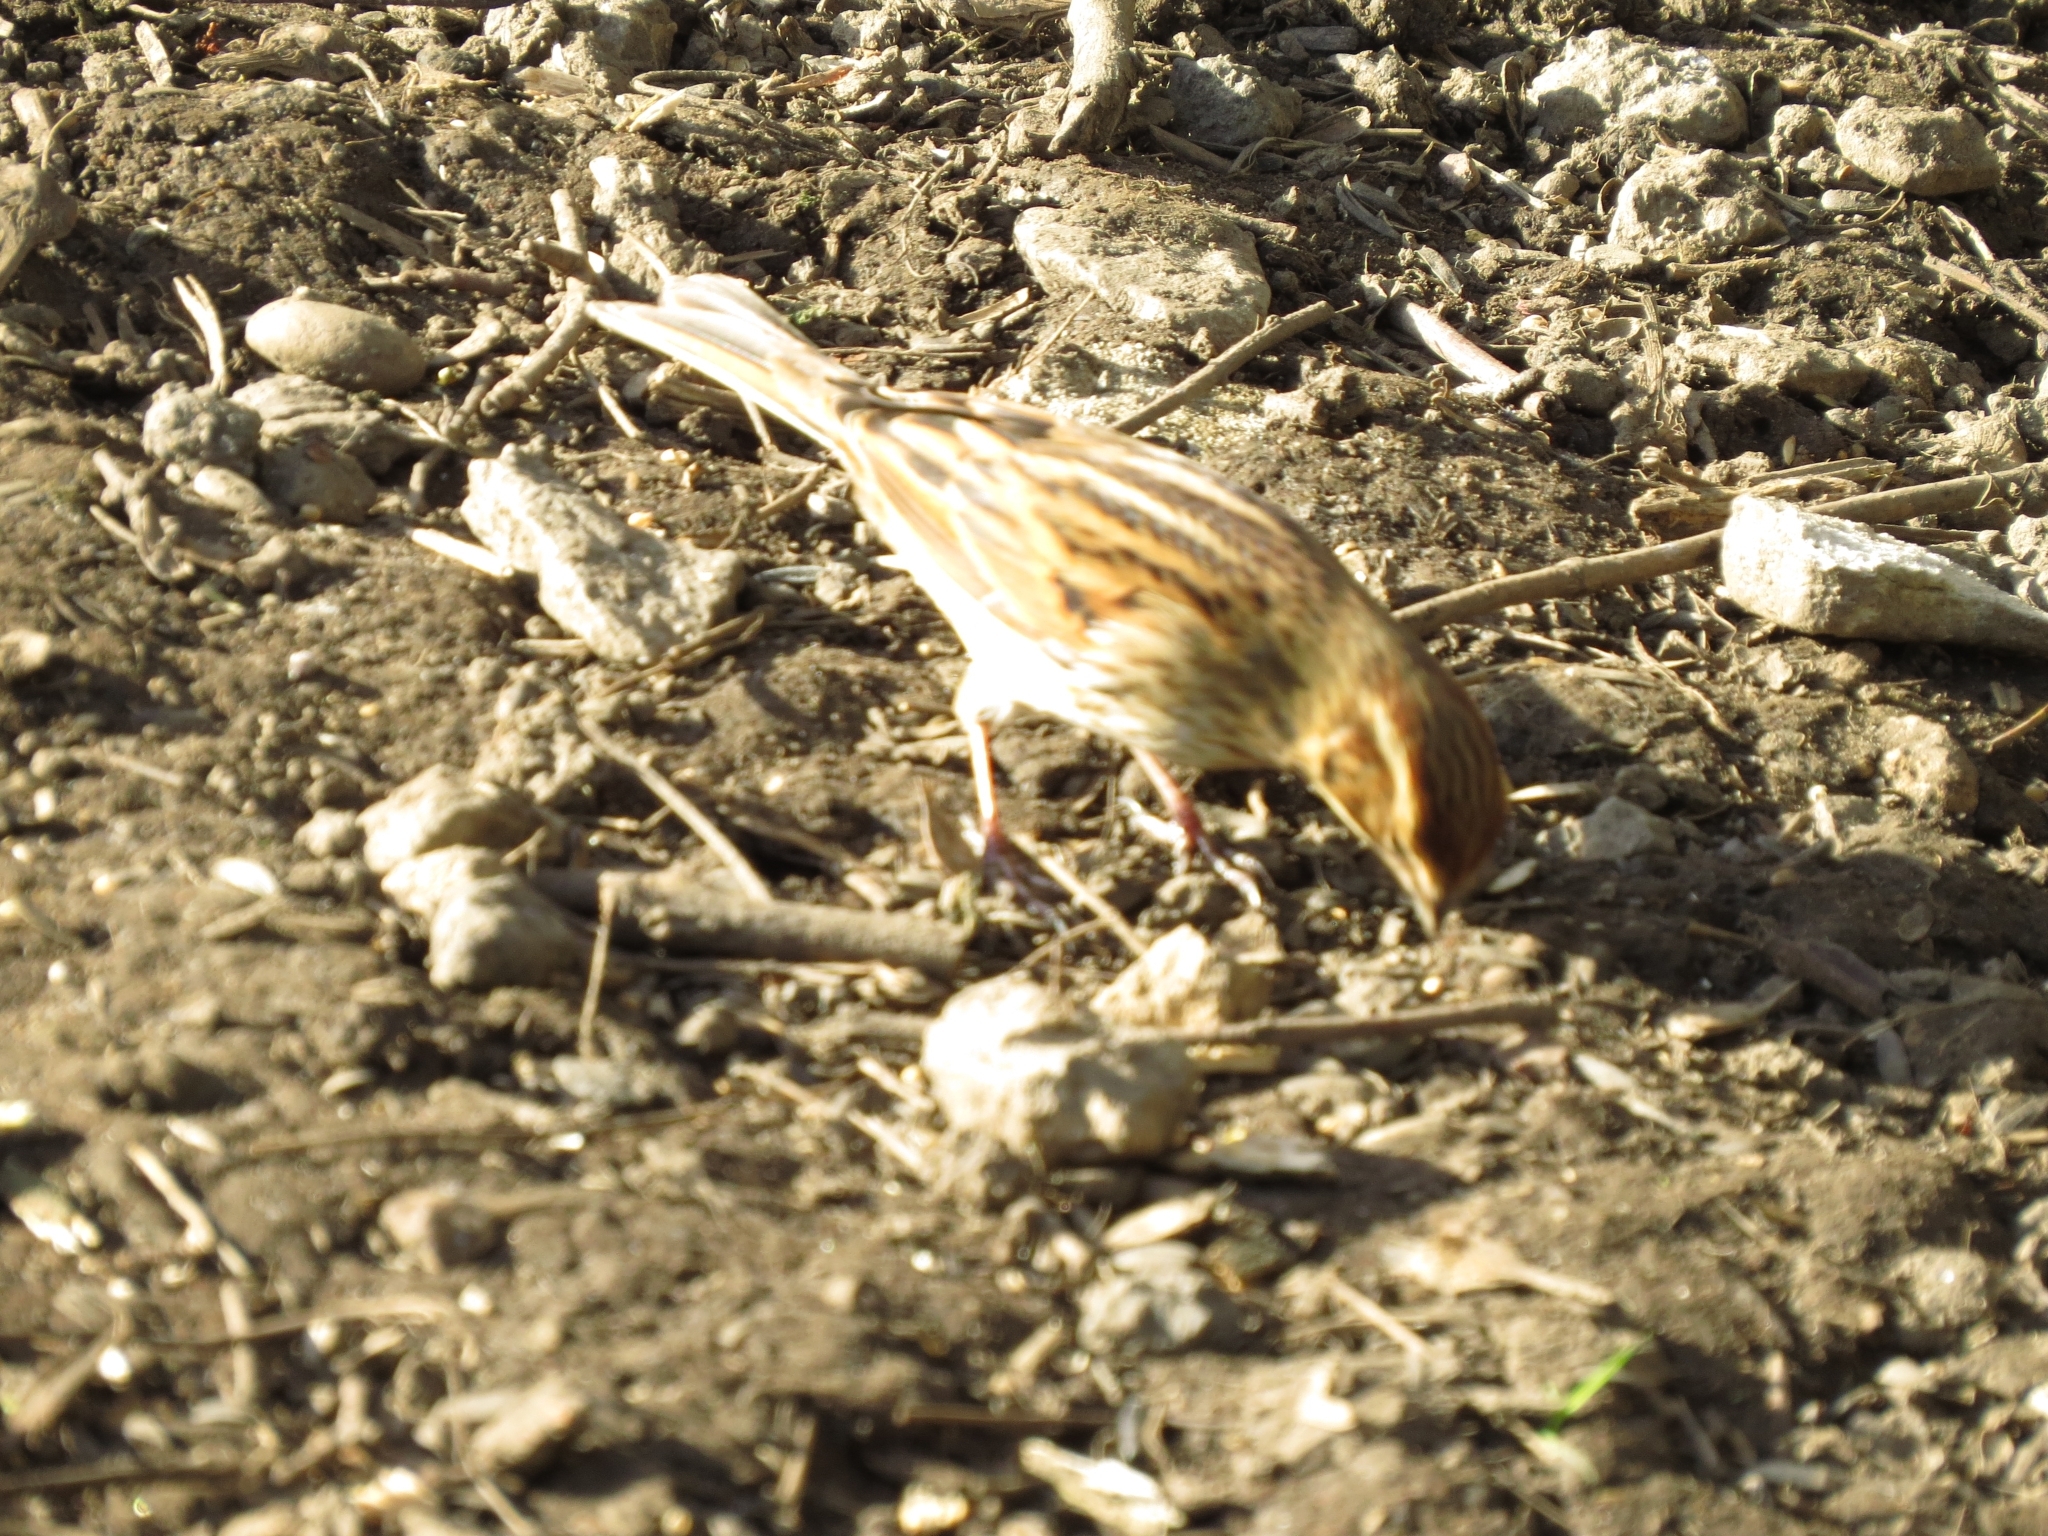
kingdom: Animalia
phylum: Chordata
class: Aves
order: Passeriformes
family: Emberizidae
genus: Emberiza
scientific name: Emberiza schoeniclus
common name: Reed bunting
